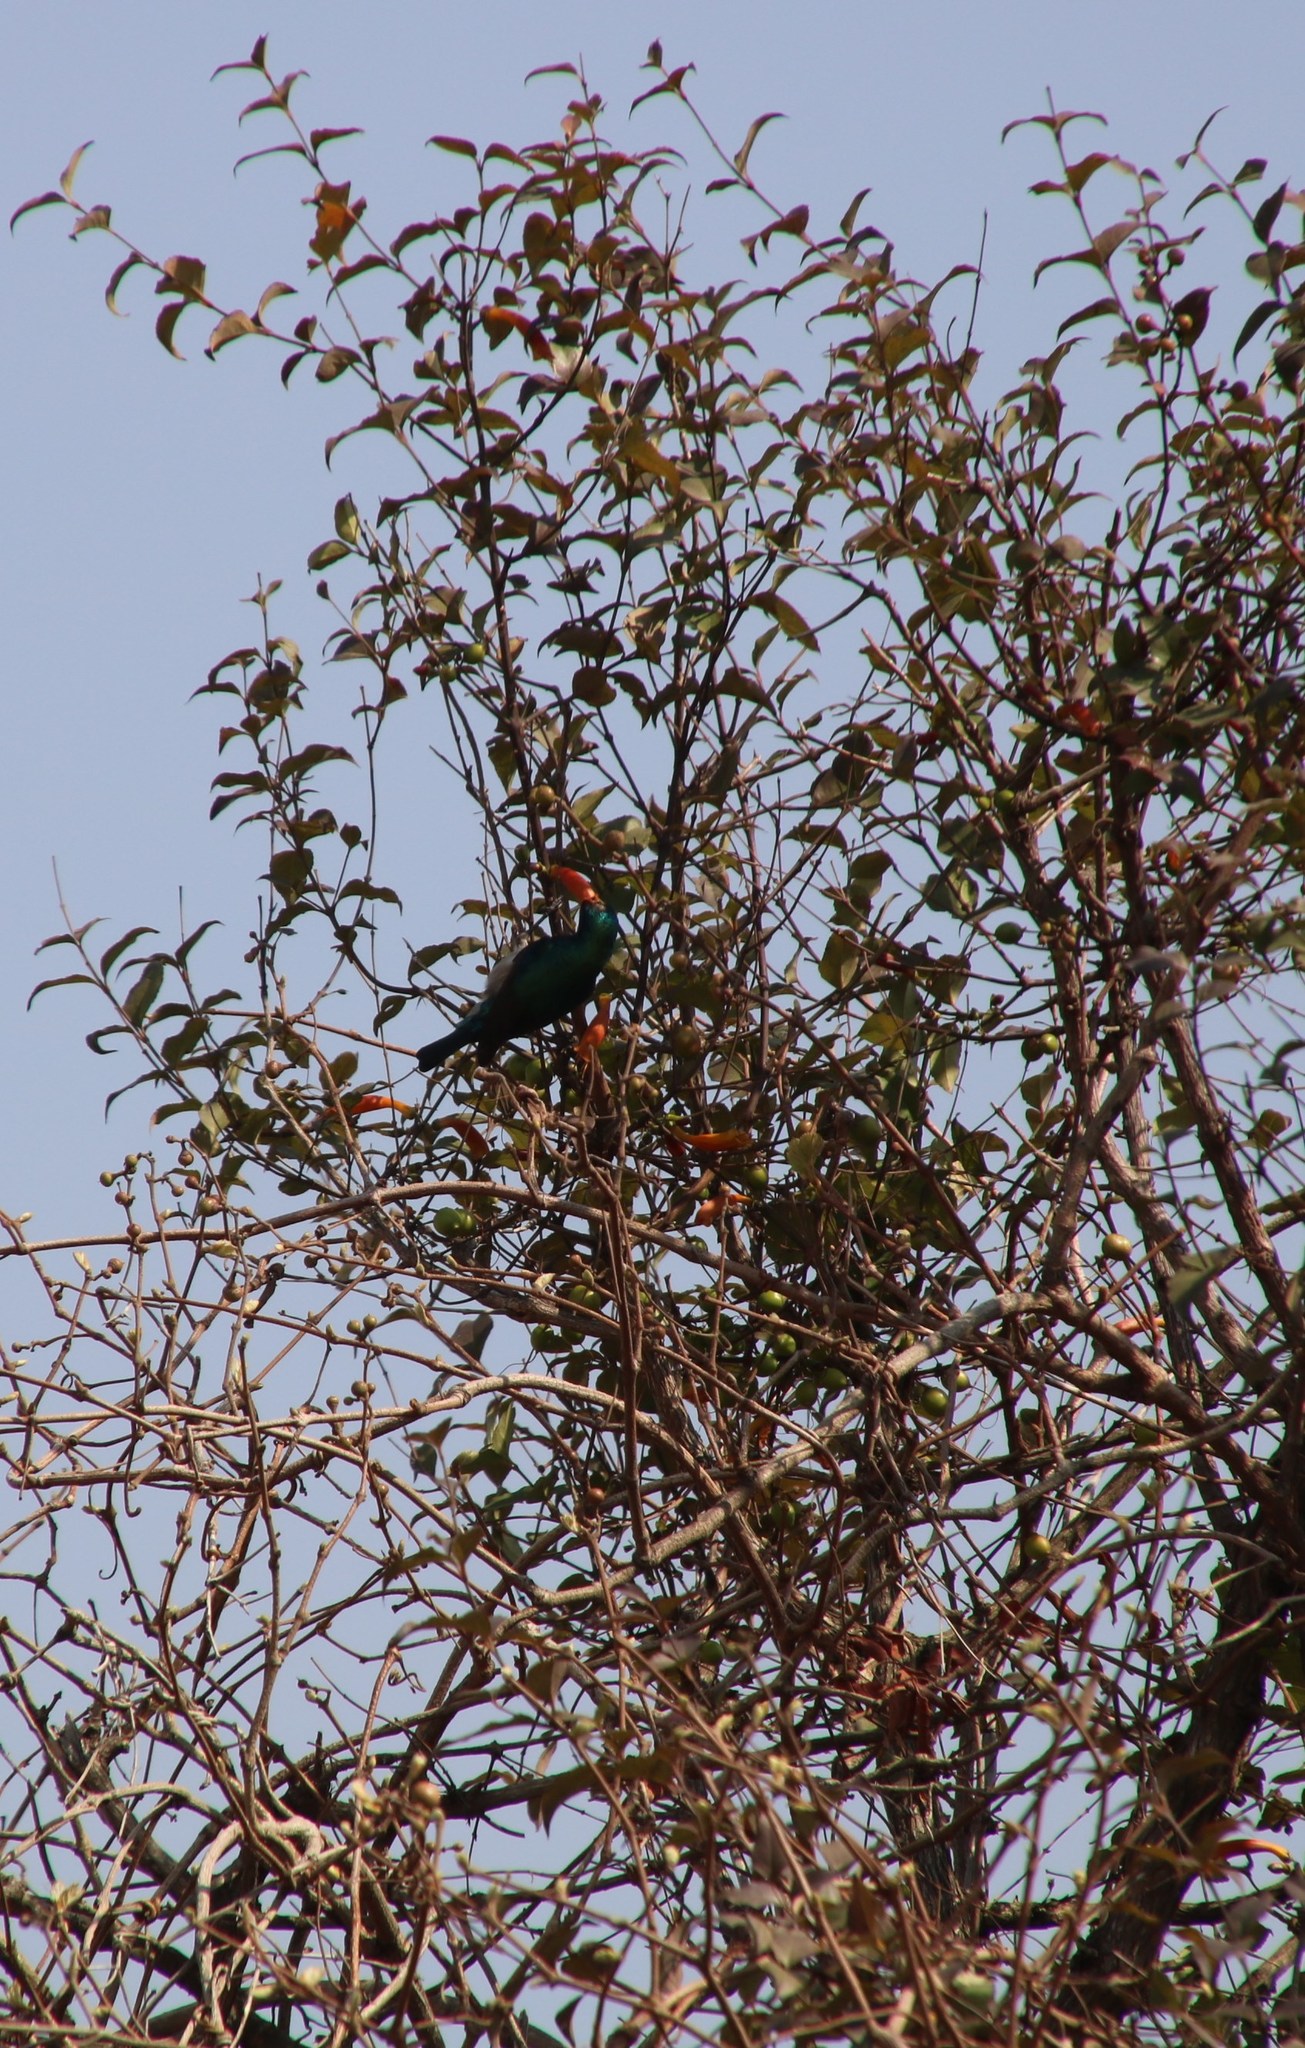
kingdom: Animalia
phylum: Chordata
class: Aves
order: Passeriformes
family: Nectariniidae
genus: Cinnyris
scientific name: Cinnyris talatala
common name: White-bellied sunbird
